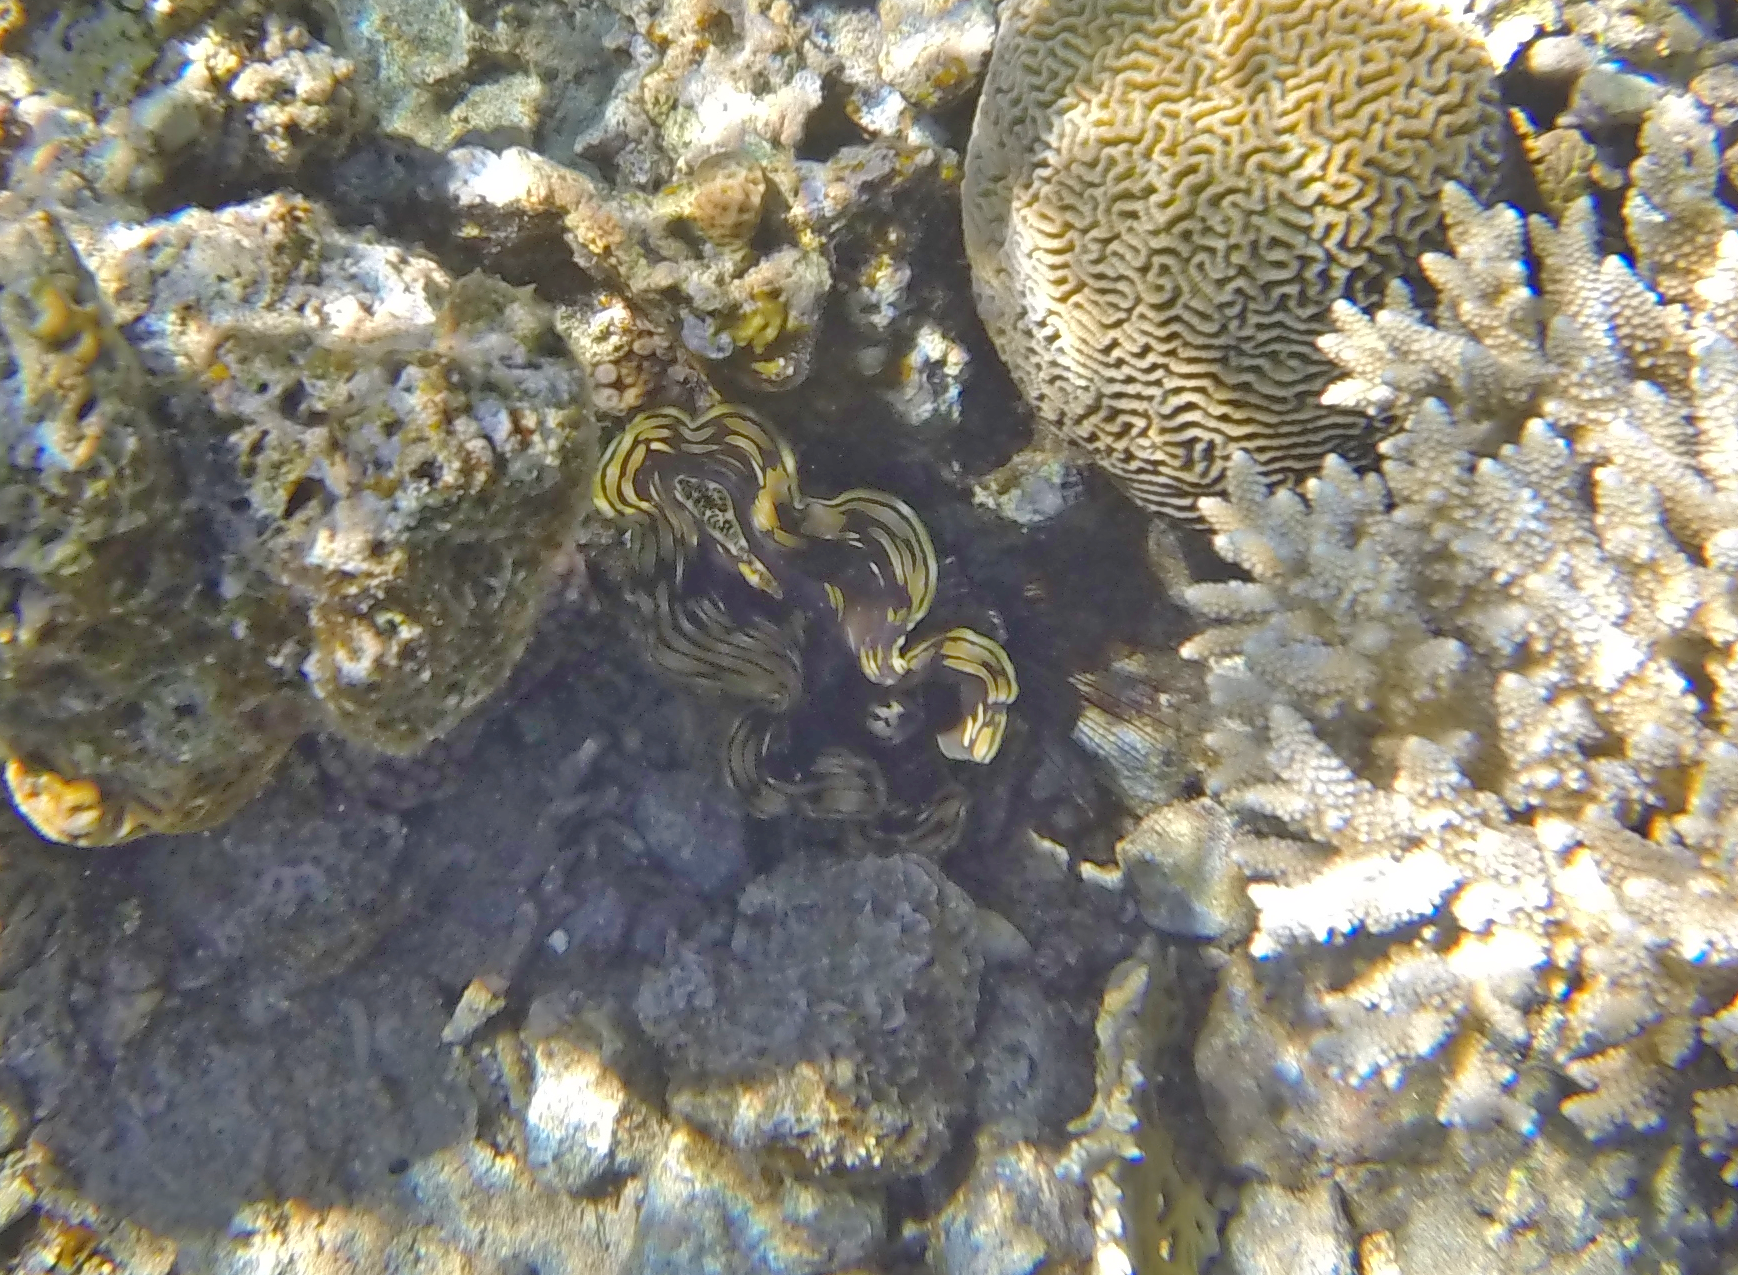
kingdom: Animalia
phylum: Mollusca
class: Bivalvia
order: Cardiida
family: Cardiidae
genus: Tridacna
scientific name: Tridacna squamosa
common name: Fluted clam
